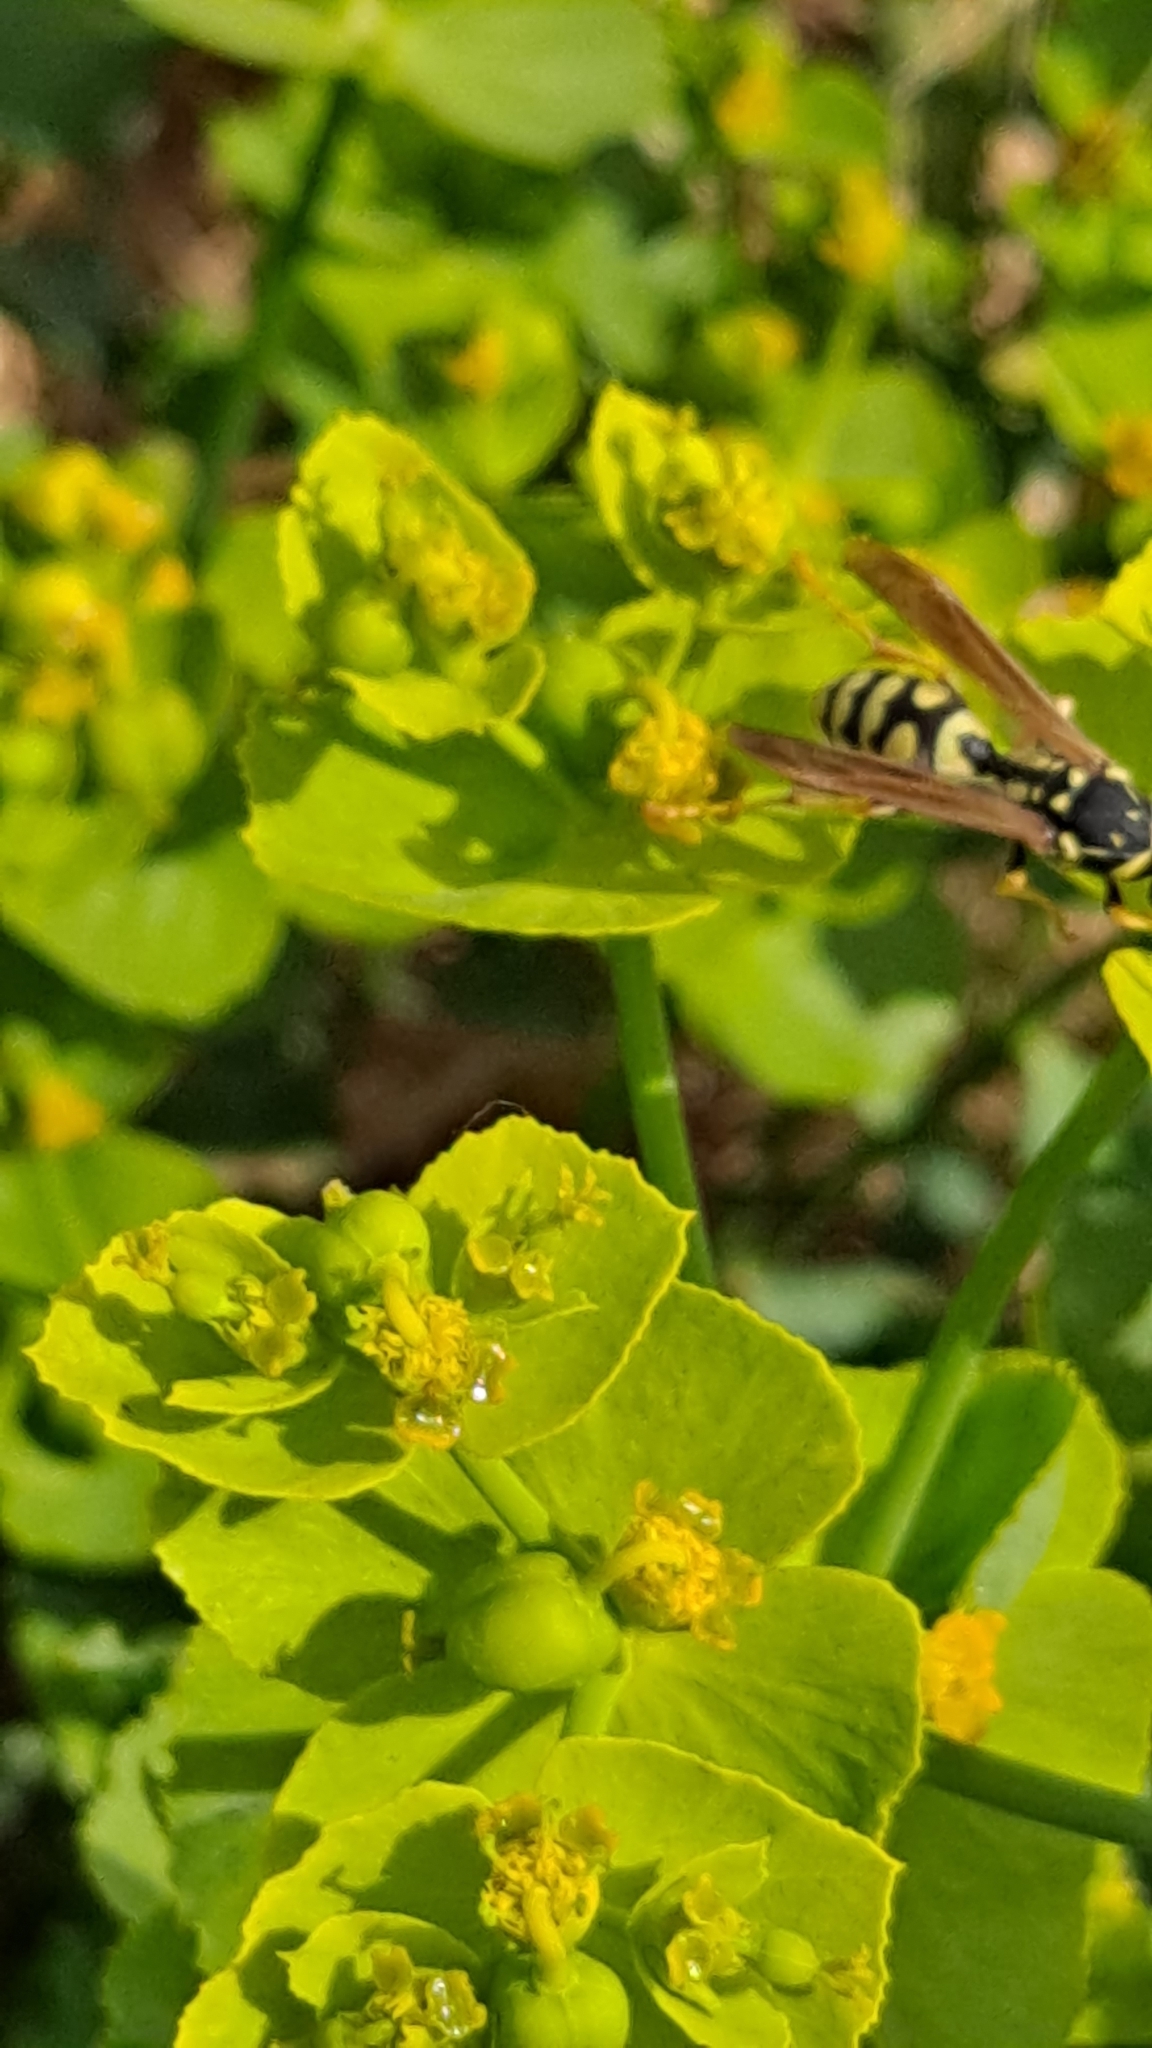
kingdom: Animalia
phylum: Arthropoda
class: Insecta
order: Hymenoptera
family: Eumenidae
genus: Polistes
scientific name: Polistes dominula
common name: Paper wasp
